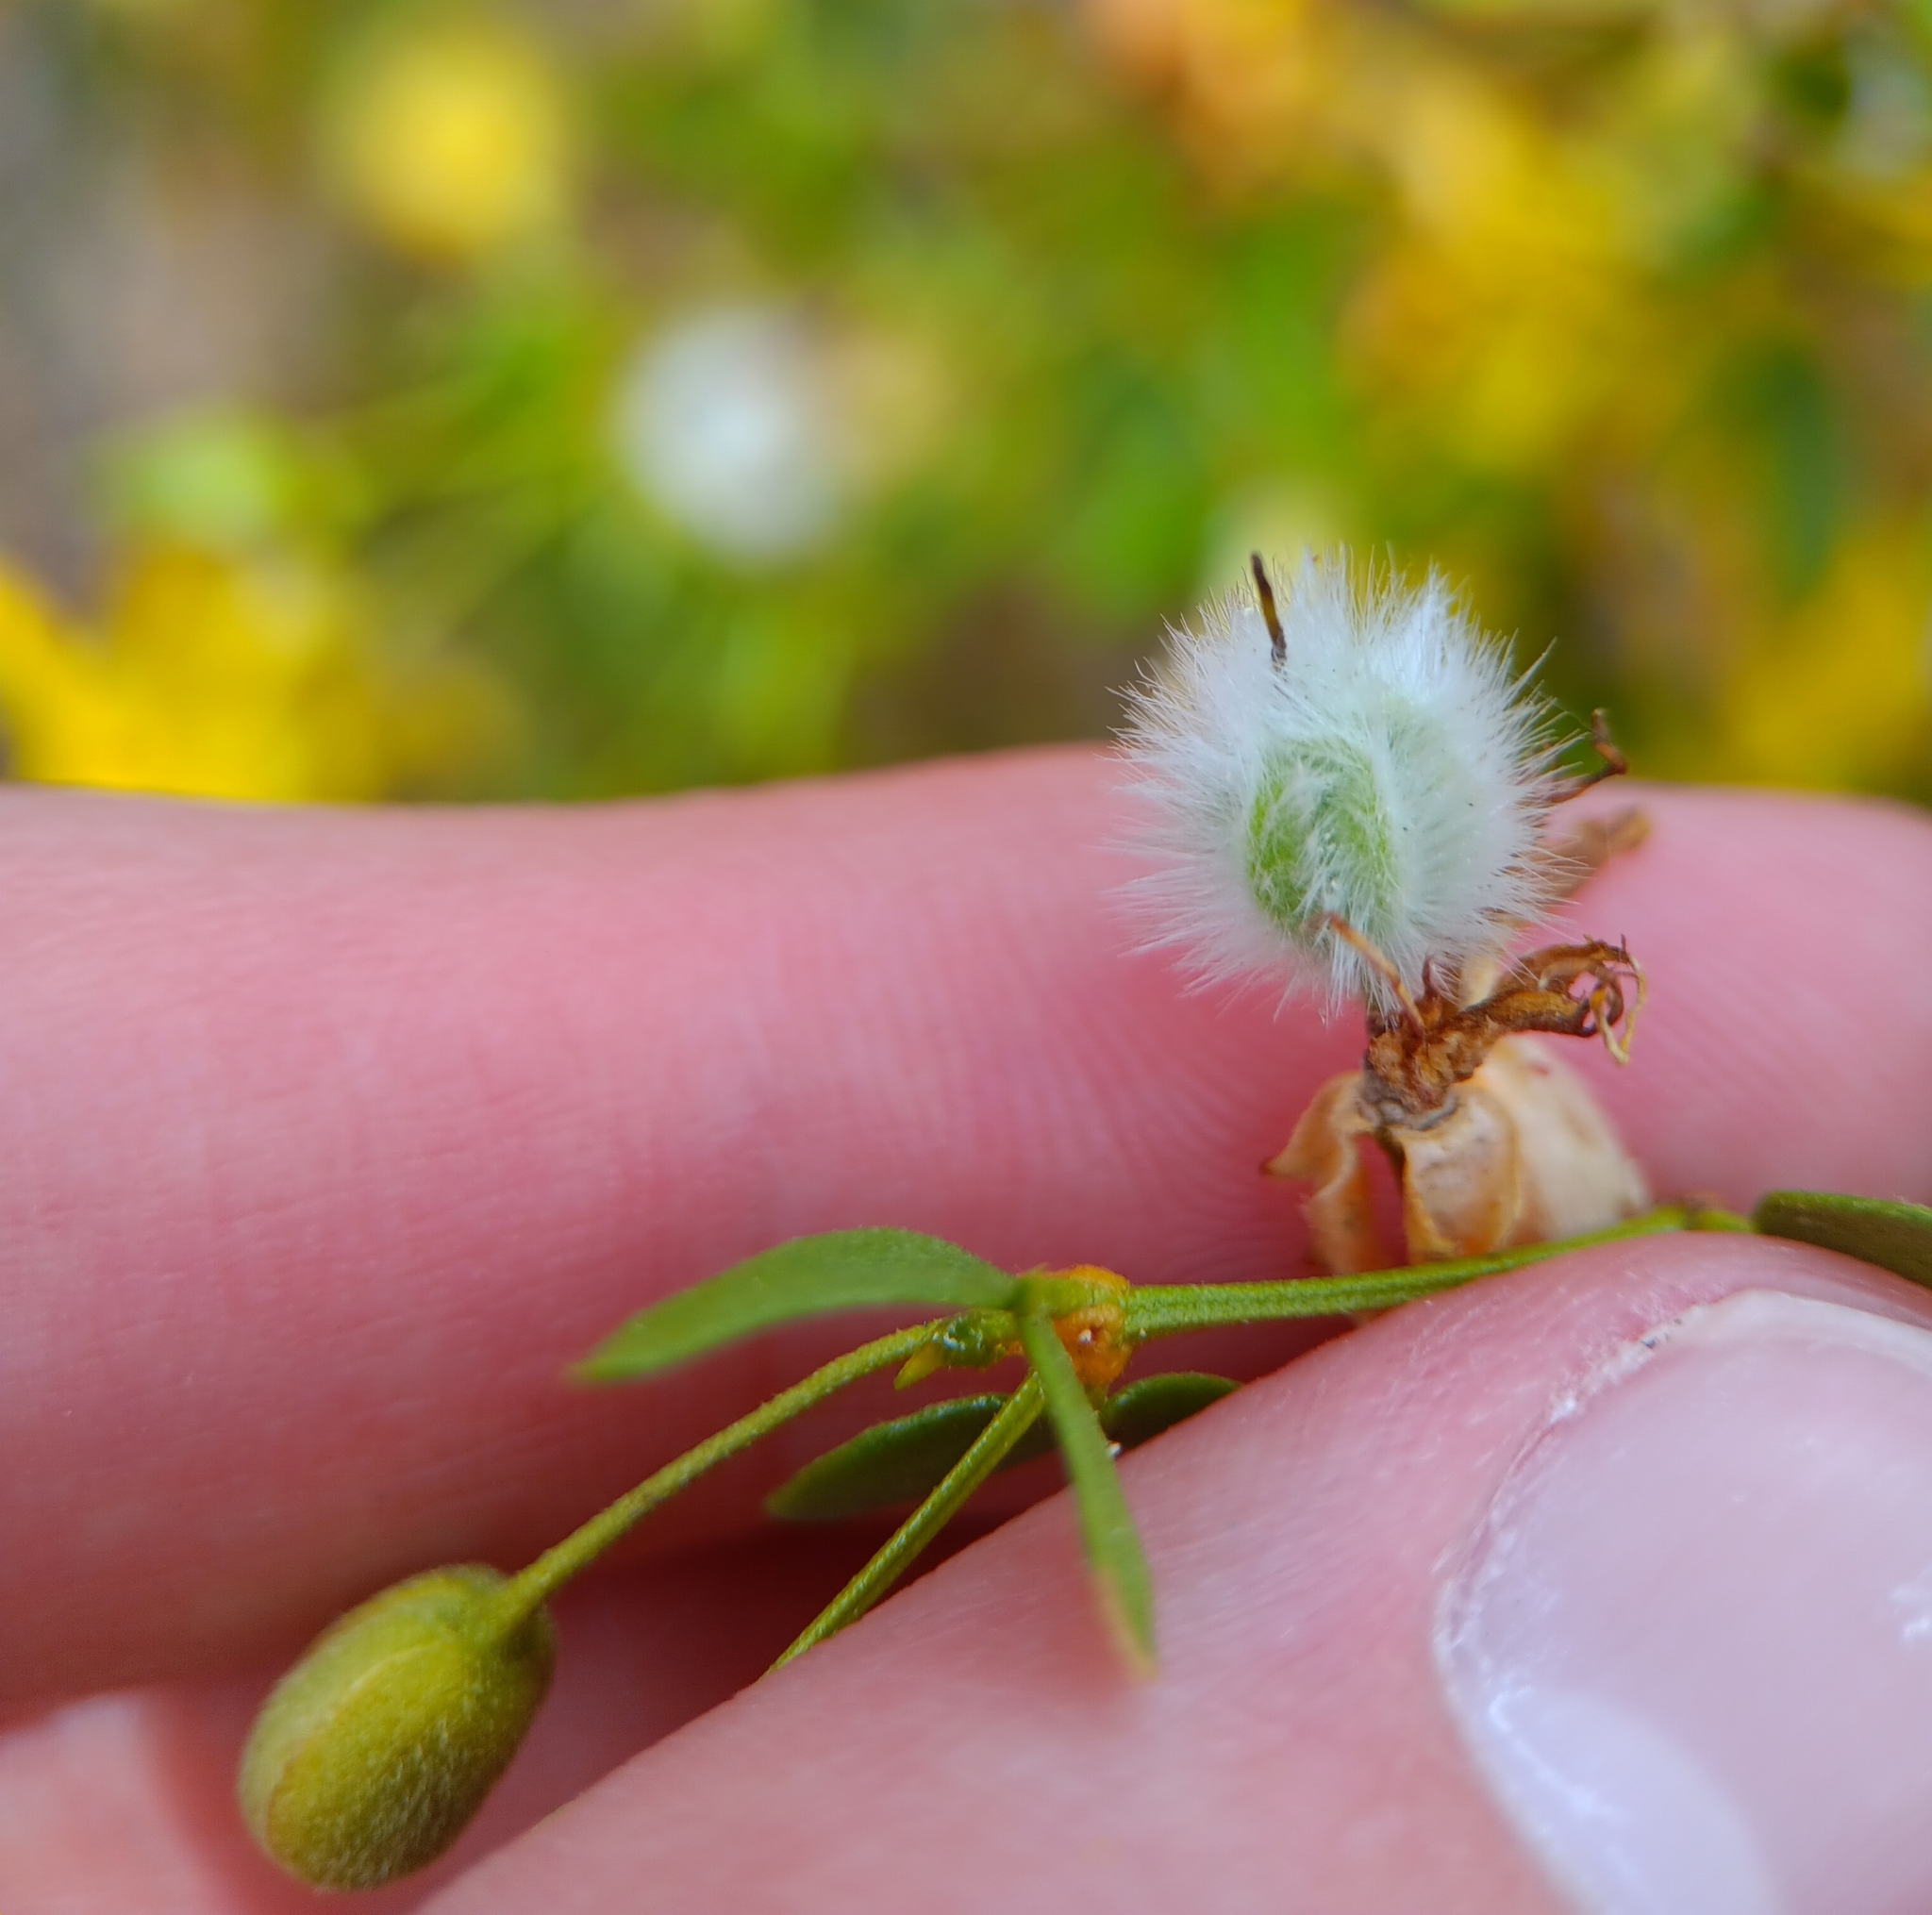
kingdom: Plantae
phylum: Tracheophyta
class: Magnoliopsida
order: Zygophyllales
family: Zygophyllaceae
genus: Larrea
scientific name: Larrea tridentata
